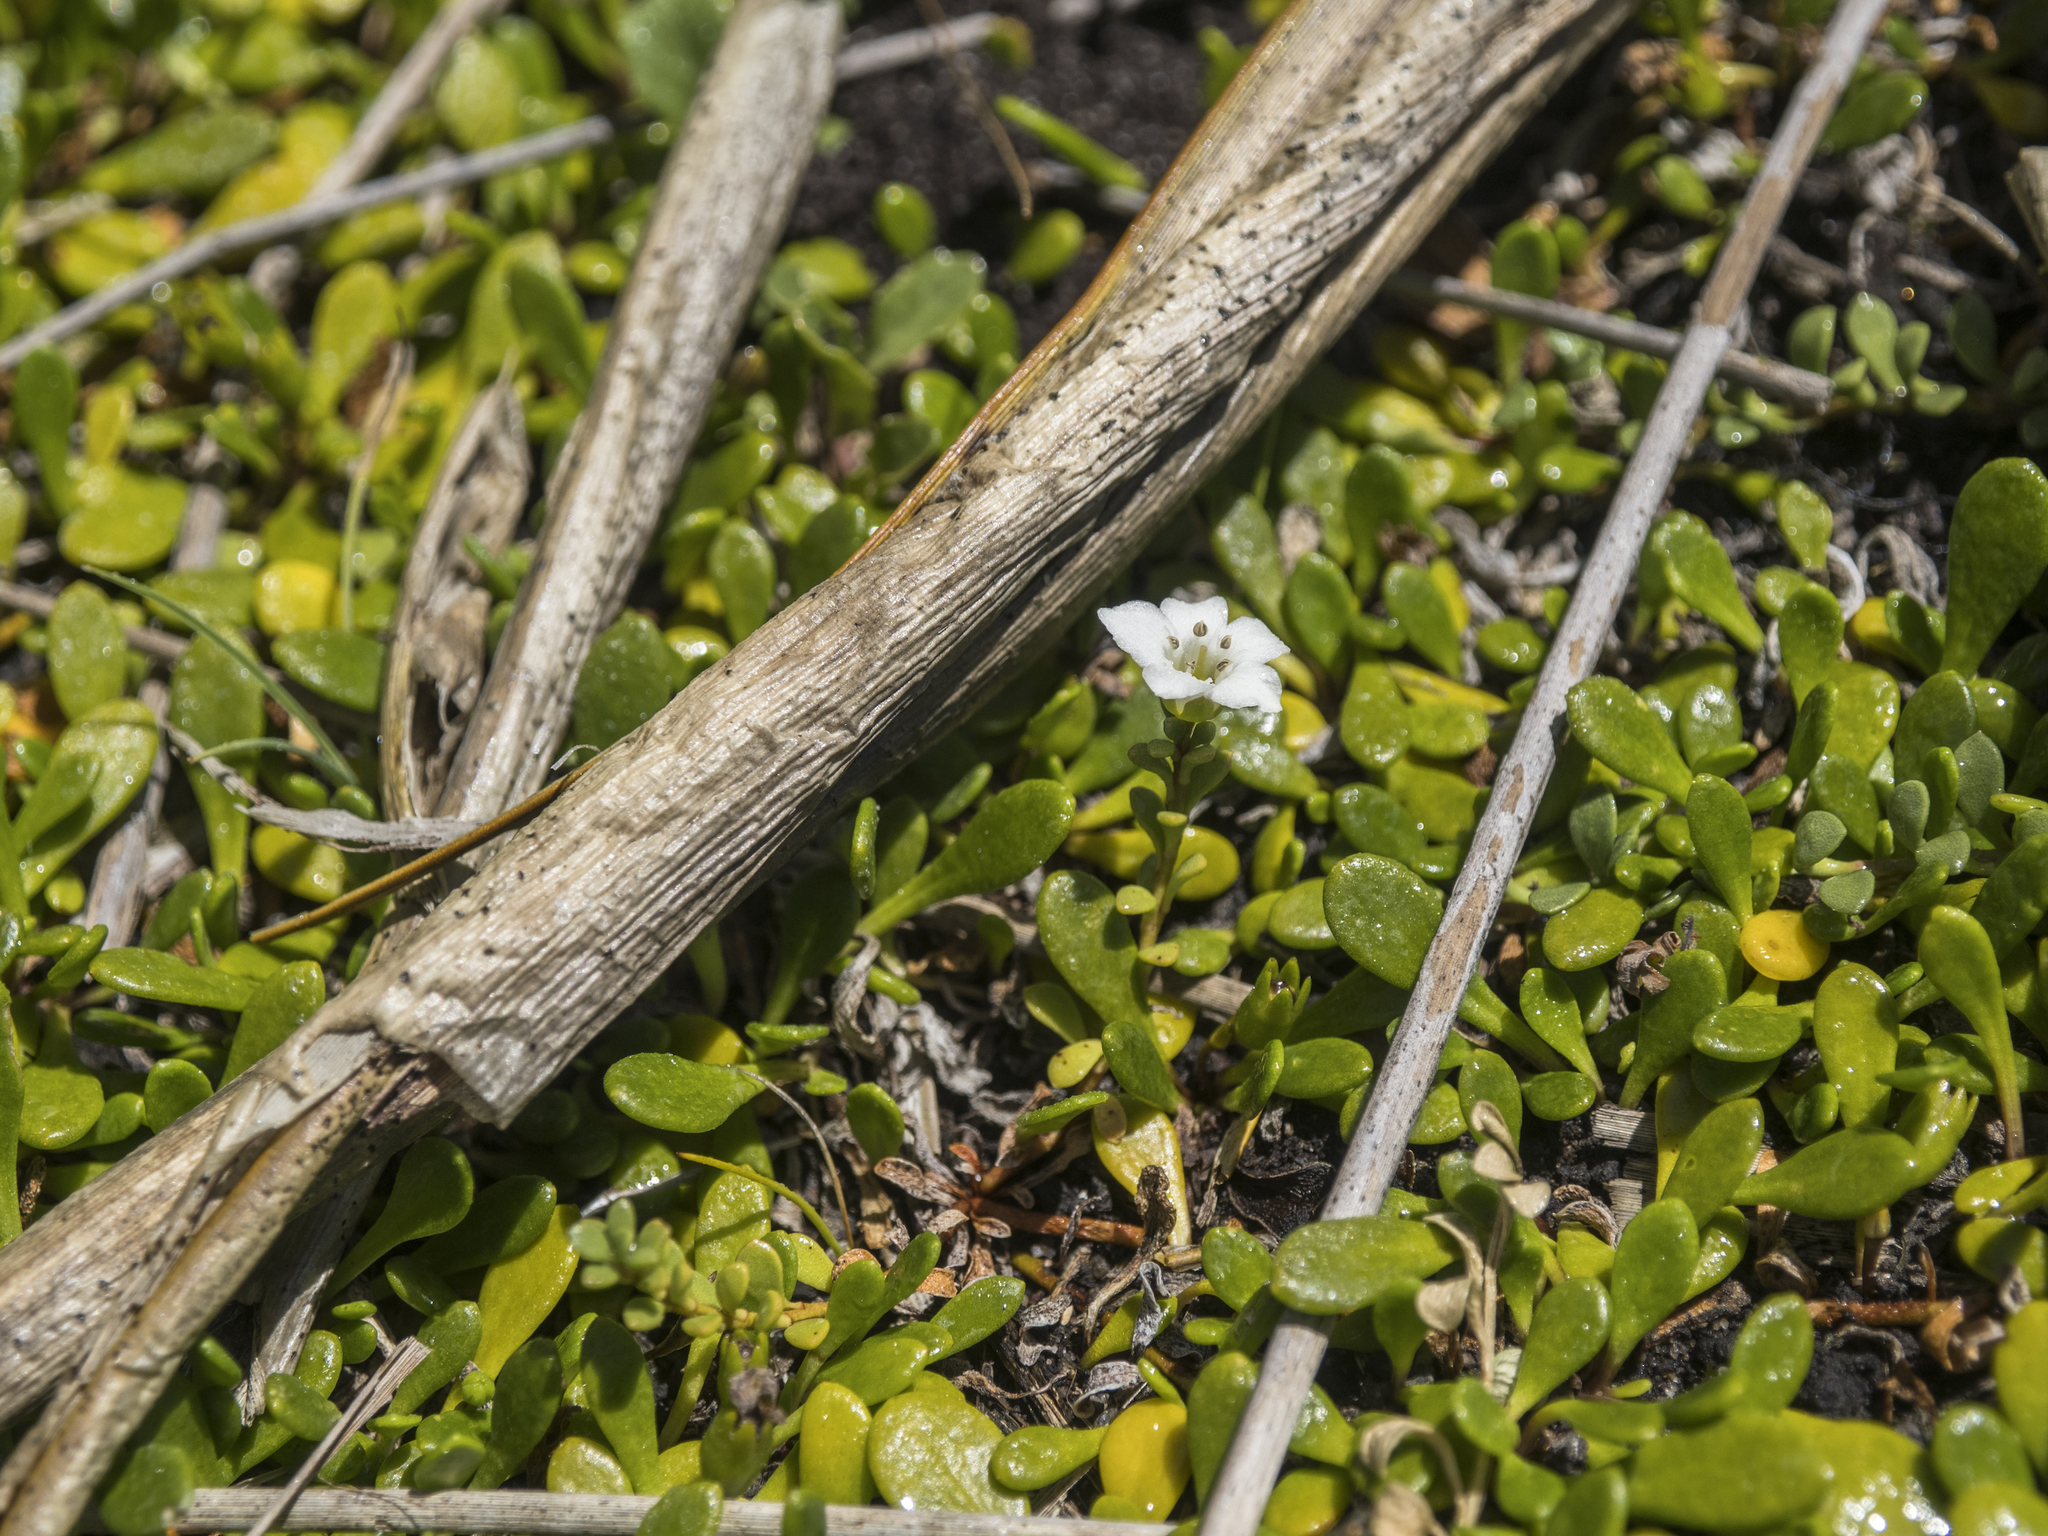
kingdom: Plantae
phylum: Tracheophyta
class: Magnoliopsida
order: Ericales
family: Primulaceae
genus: Samolus
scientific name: Samolus repens
